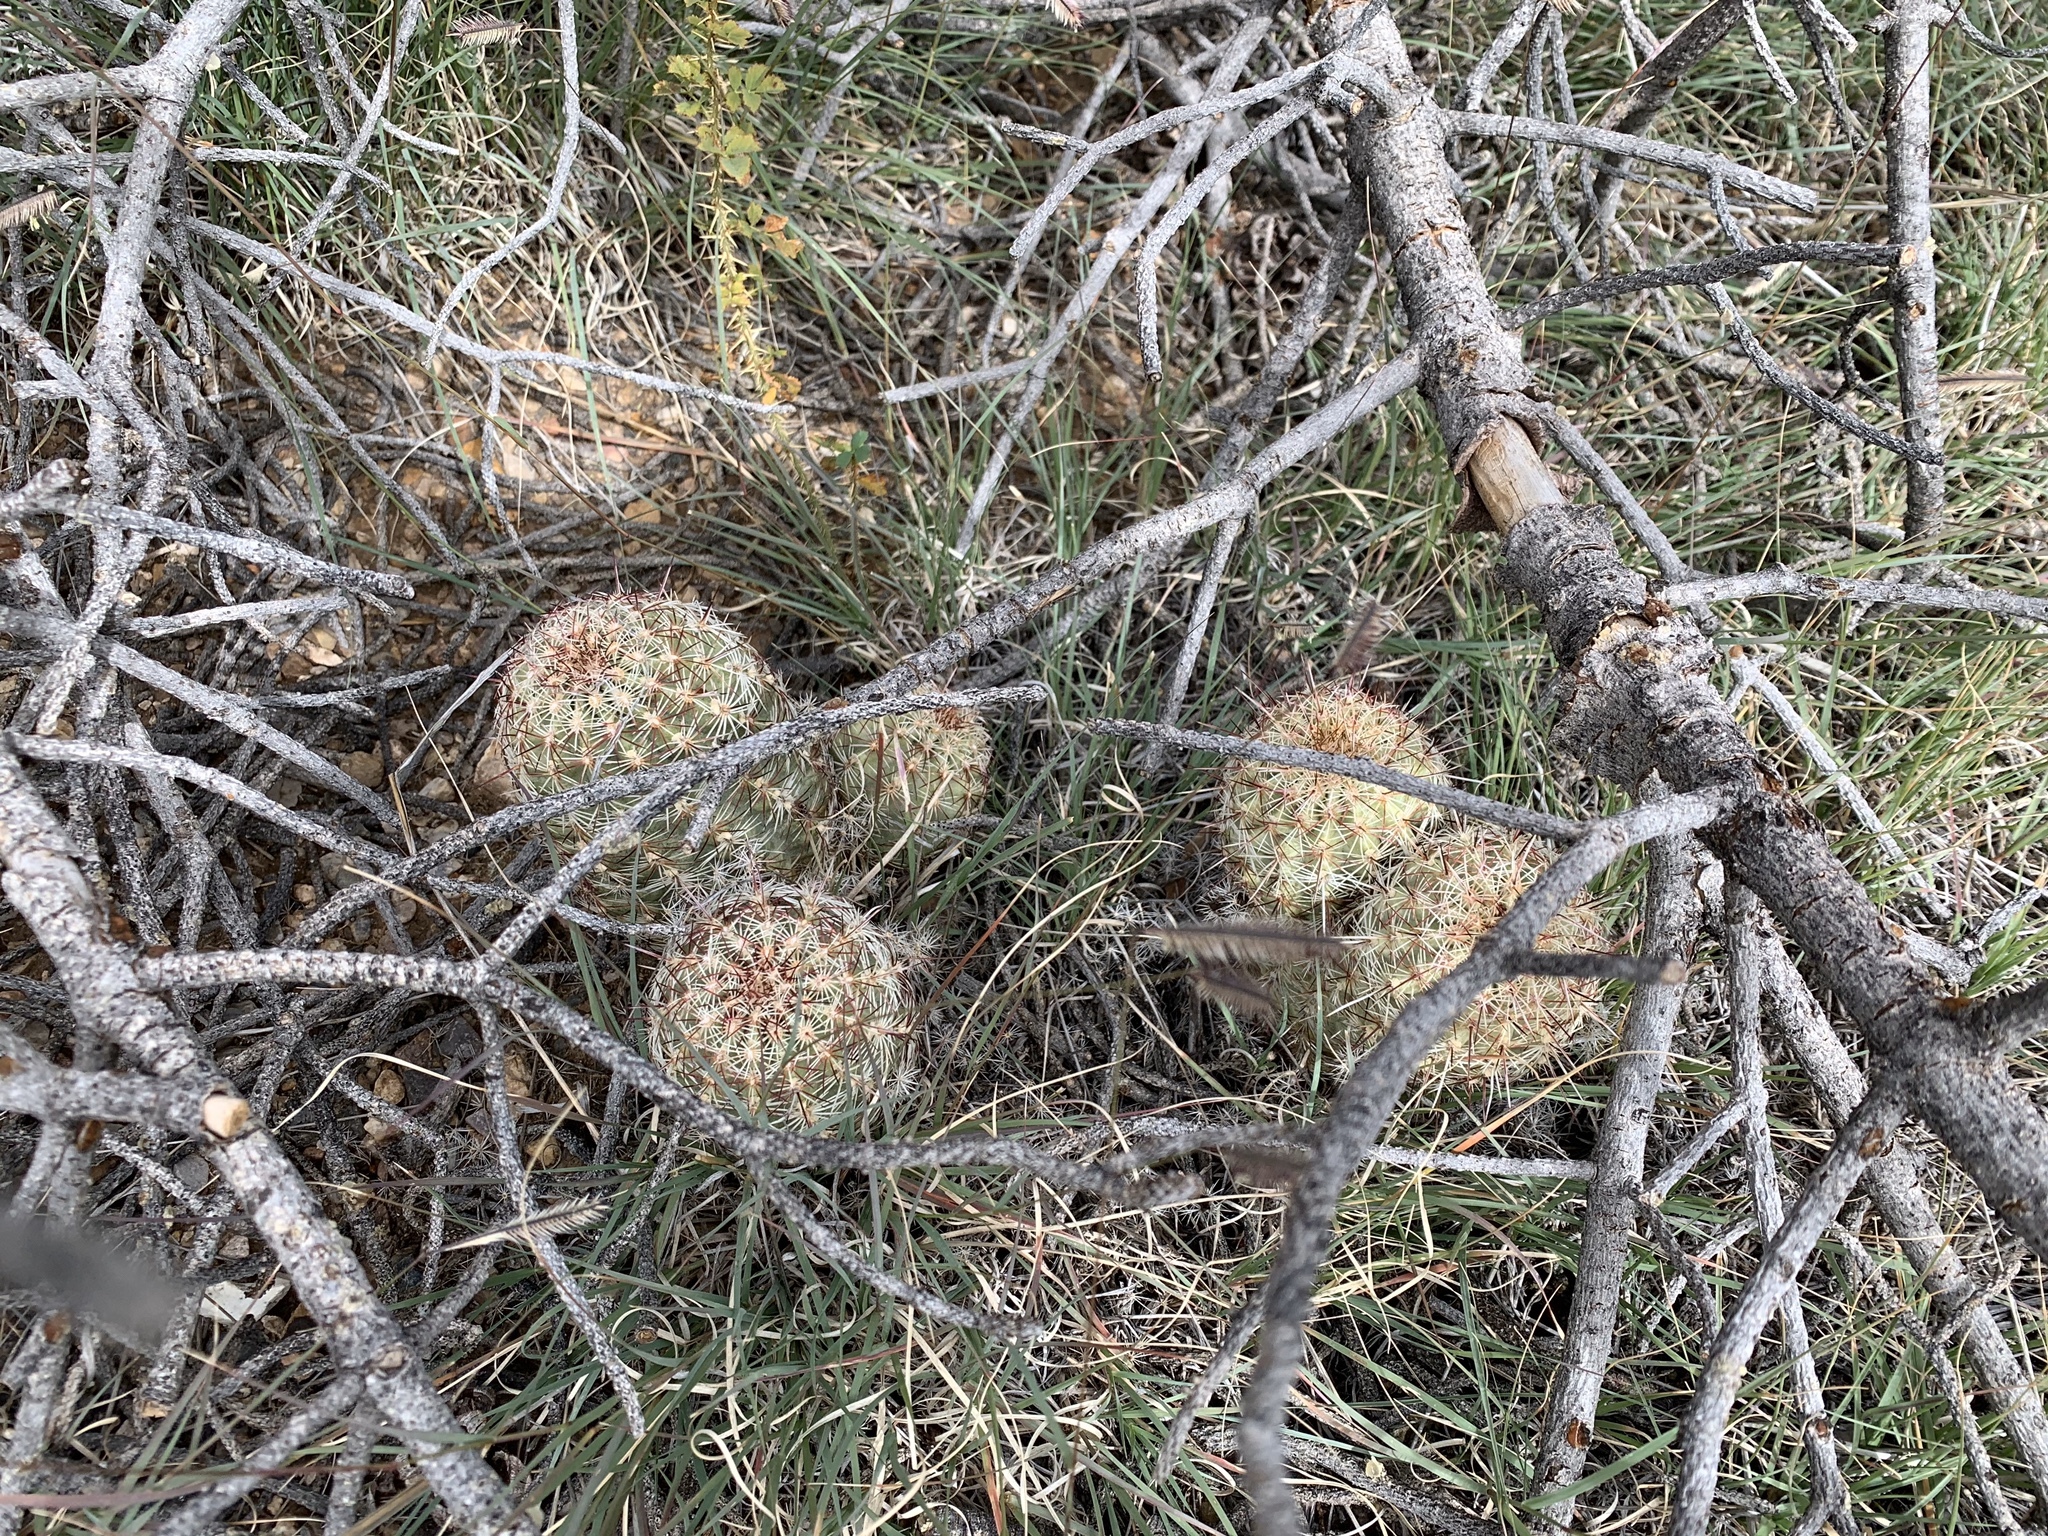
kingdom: Plantae
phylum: Tracheophyta
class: Magnoliopsida
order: Caryophyllales
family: Cactaceae
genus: Echinocereus
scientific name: Echinocereus viridiflorus
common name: Nylon hedgehog cactus
